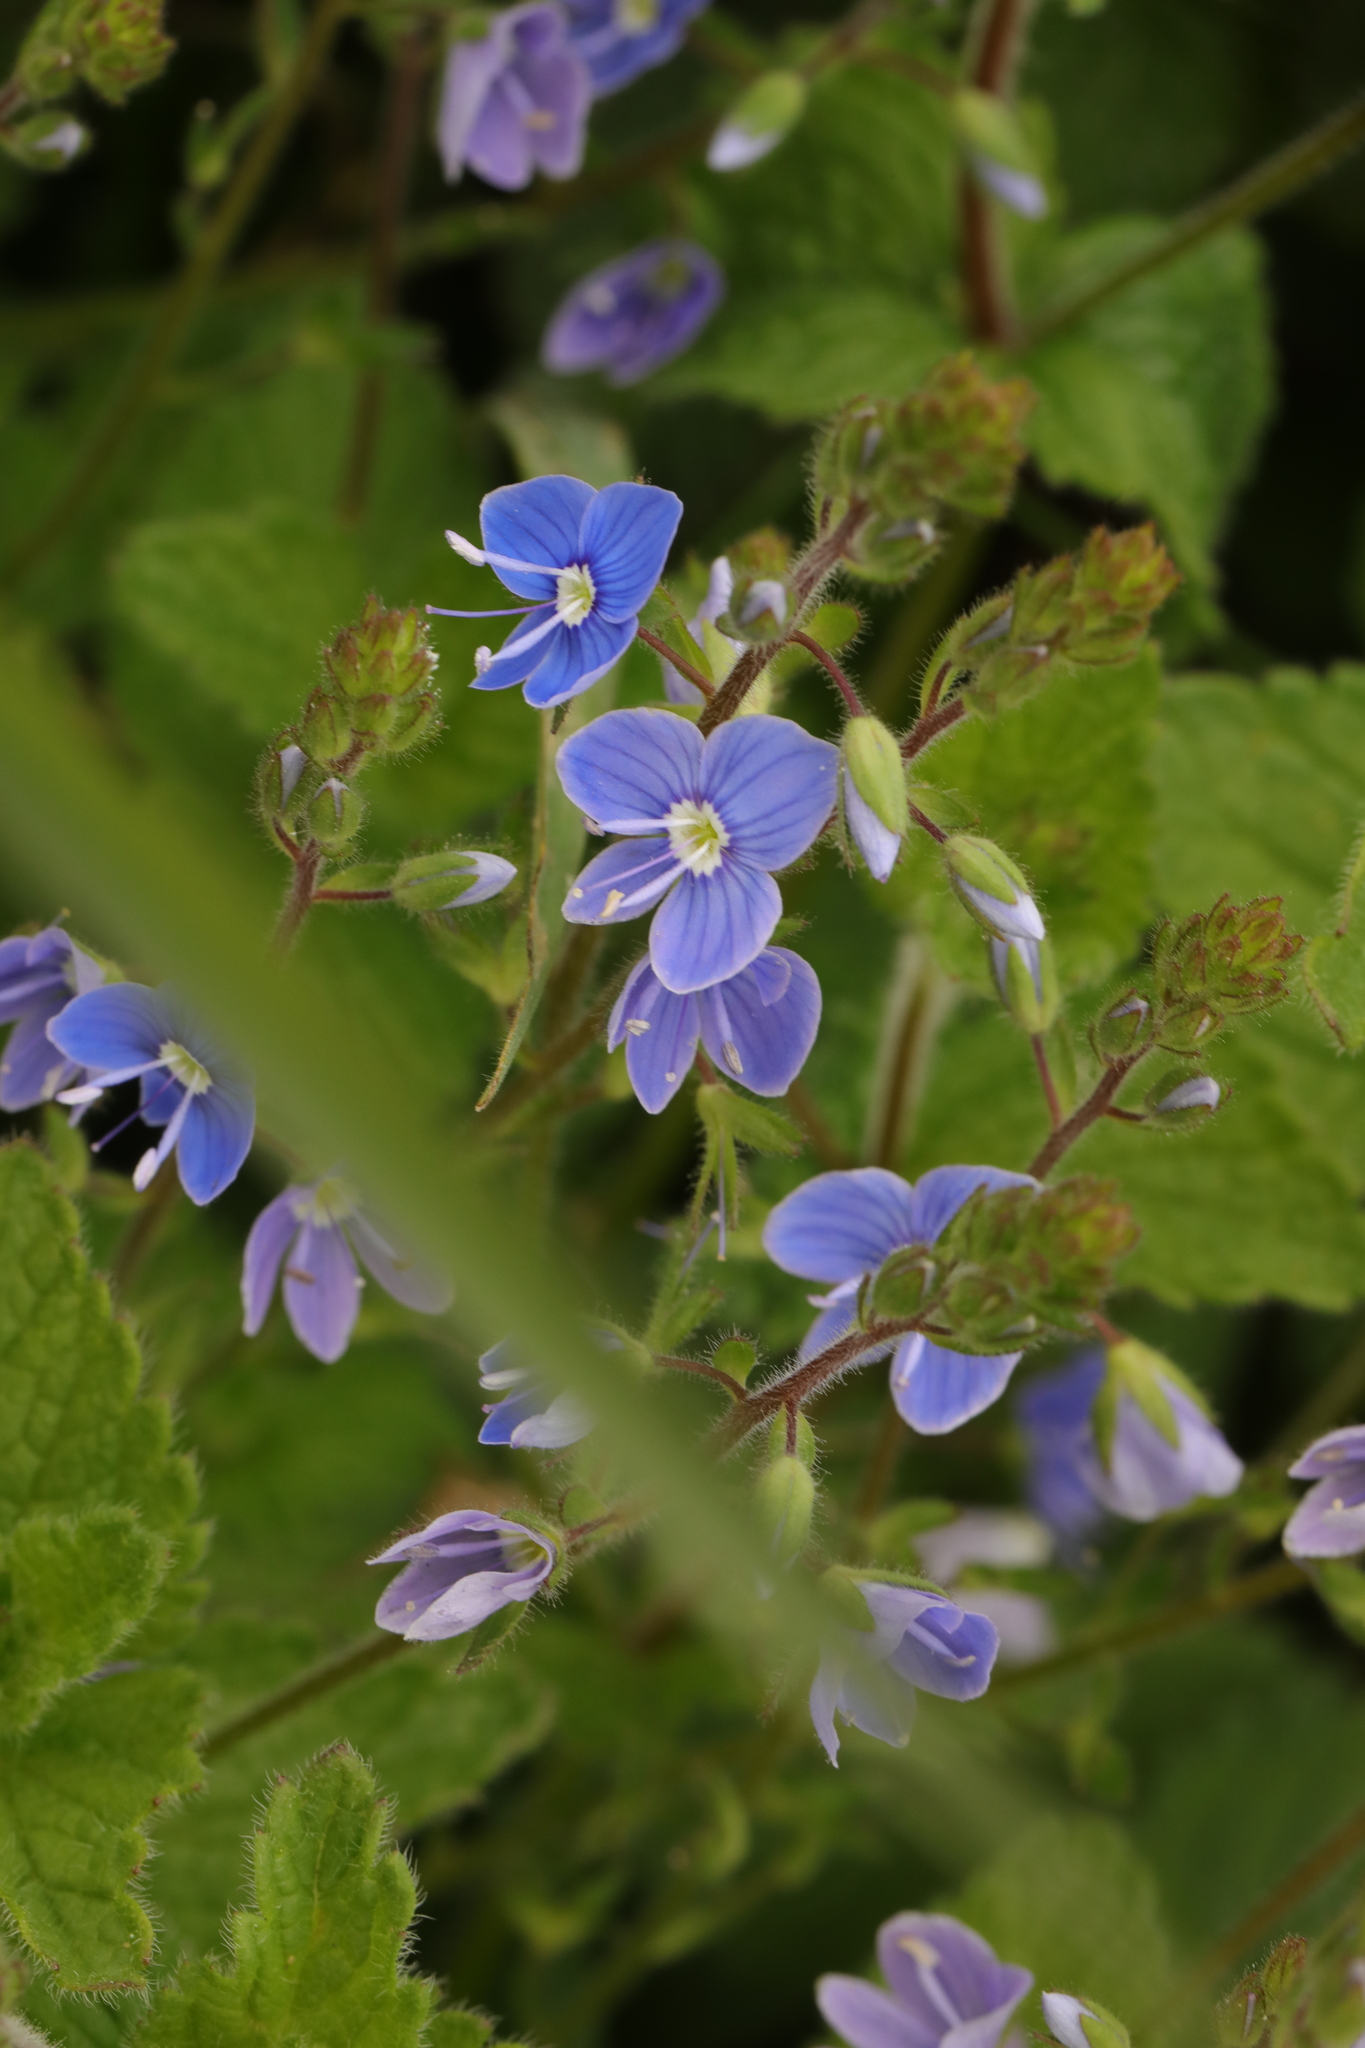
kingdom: Plantae
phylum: Tracheophyta
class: Magnoliopsida
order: Lamiales
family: Plantaginaceae
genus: Veronica
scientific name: Veronica chamaedrys
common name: Germander speedwell
